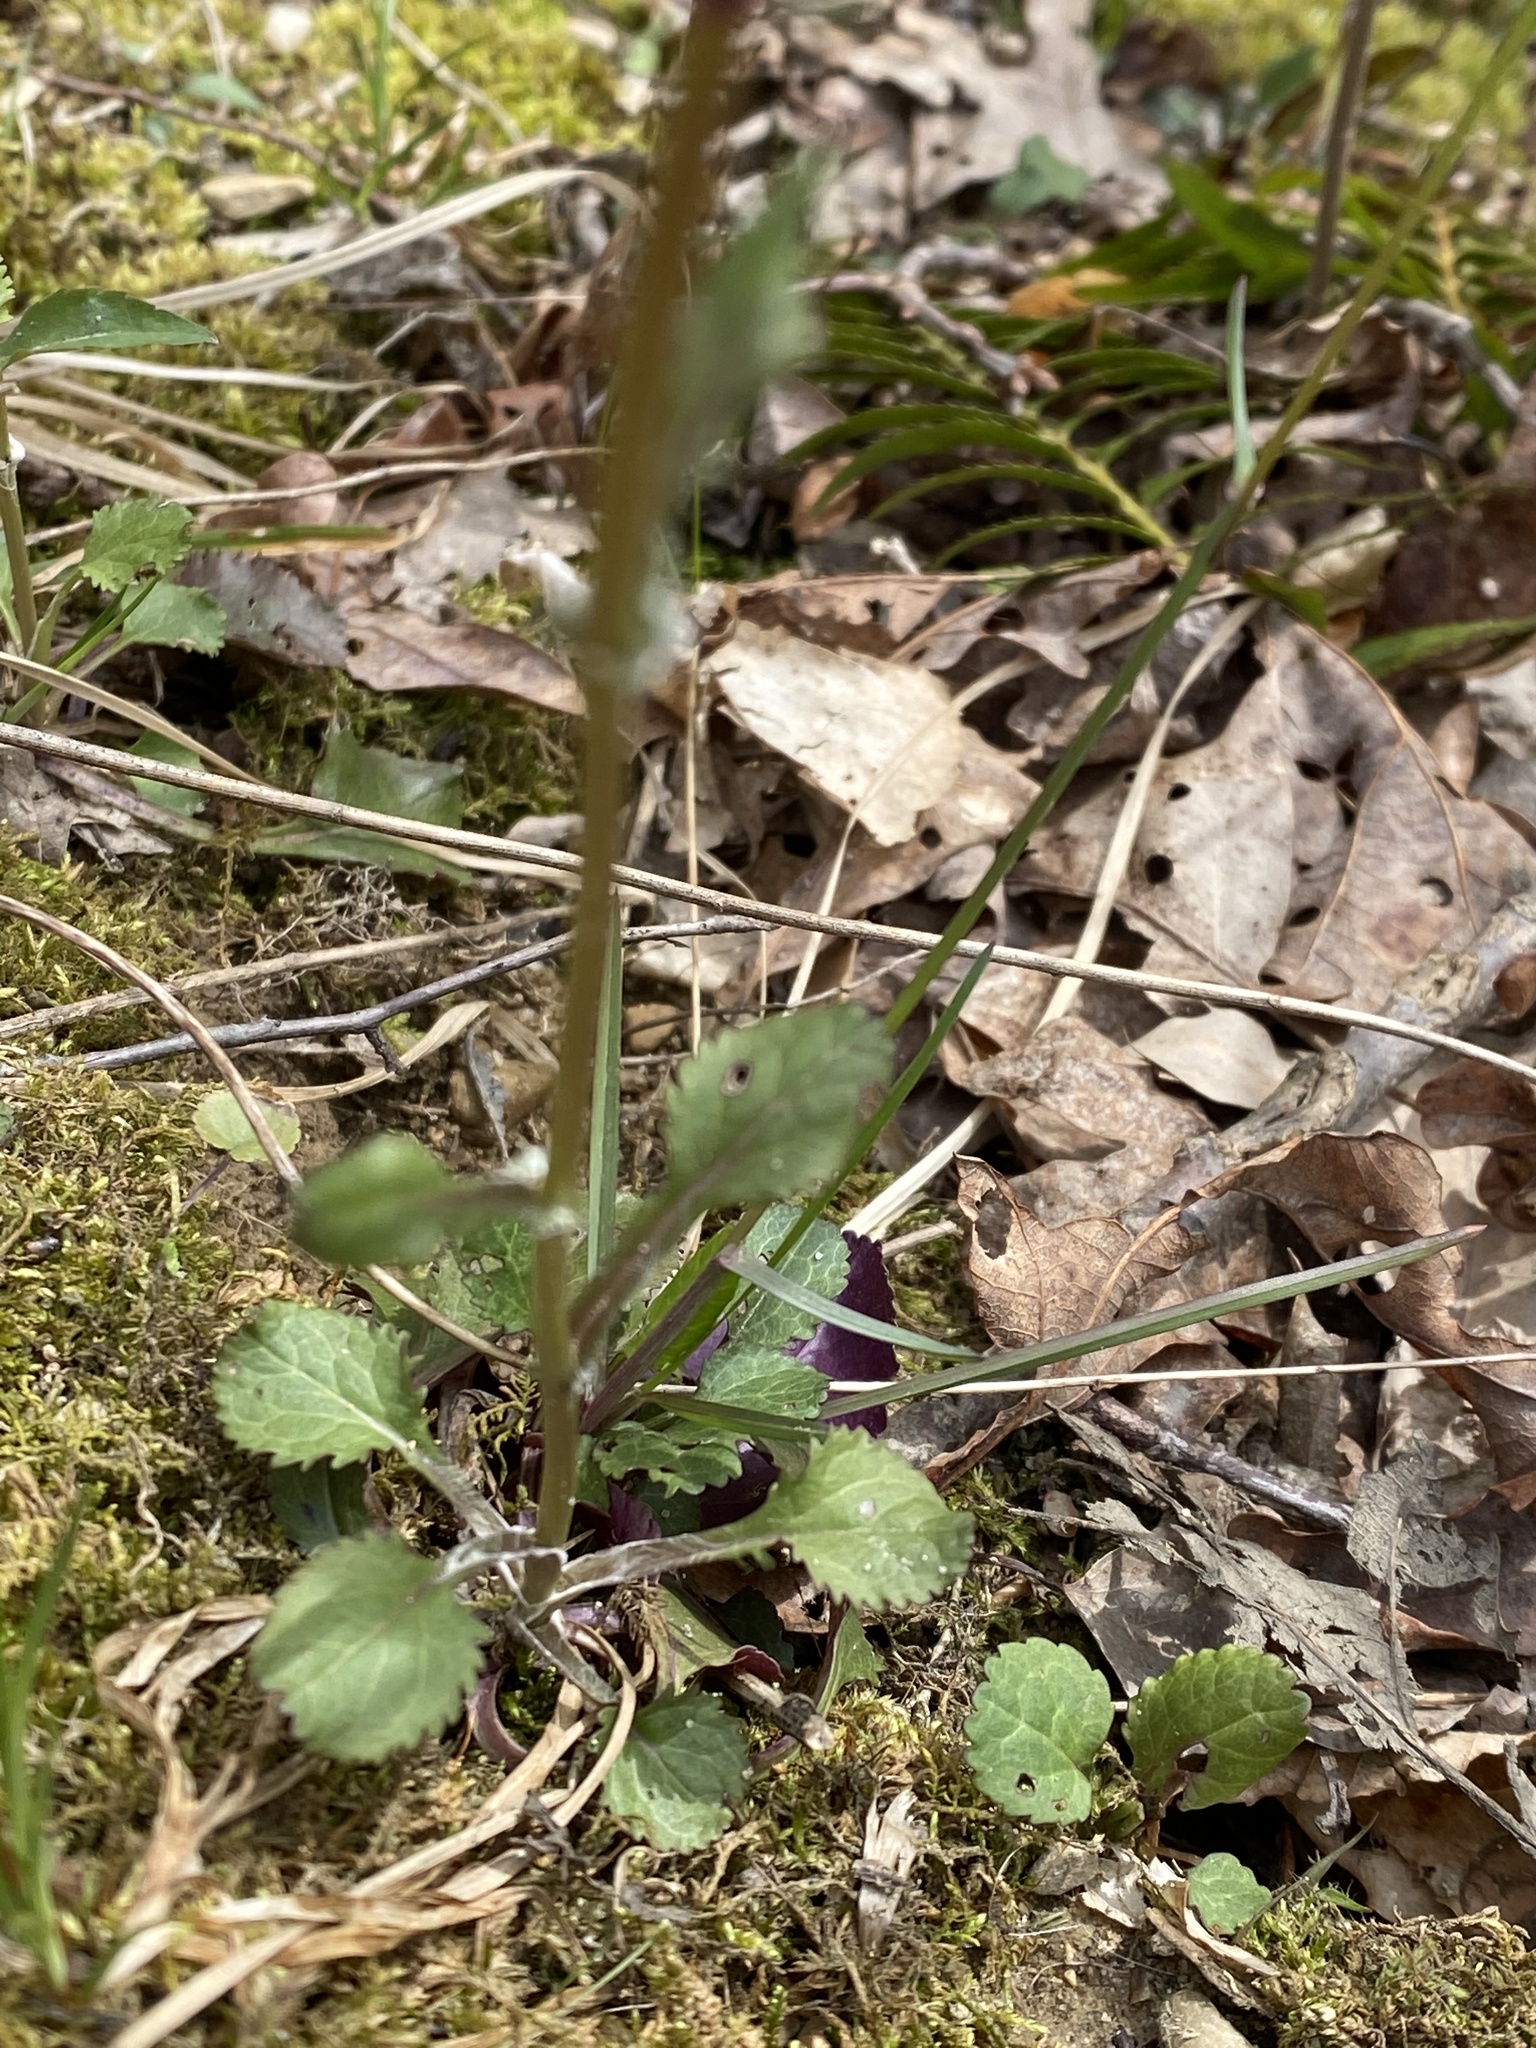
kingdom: Plantae
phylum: Tracheophyta
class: Magnoliopsida
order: Asterales
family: Asteraceae
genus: Packera
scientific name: Packera obovata
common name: Round-leaf ragwort
